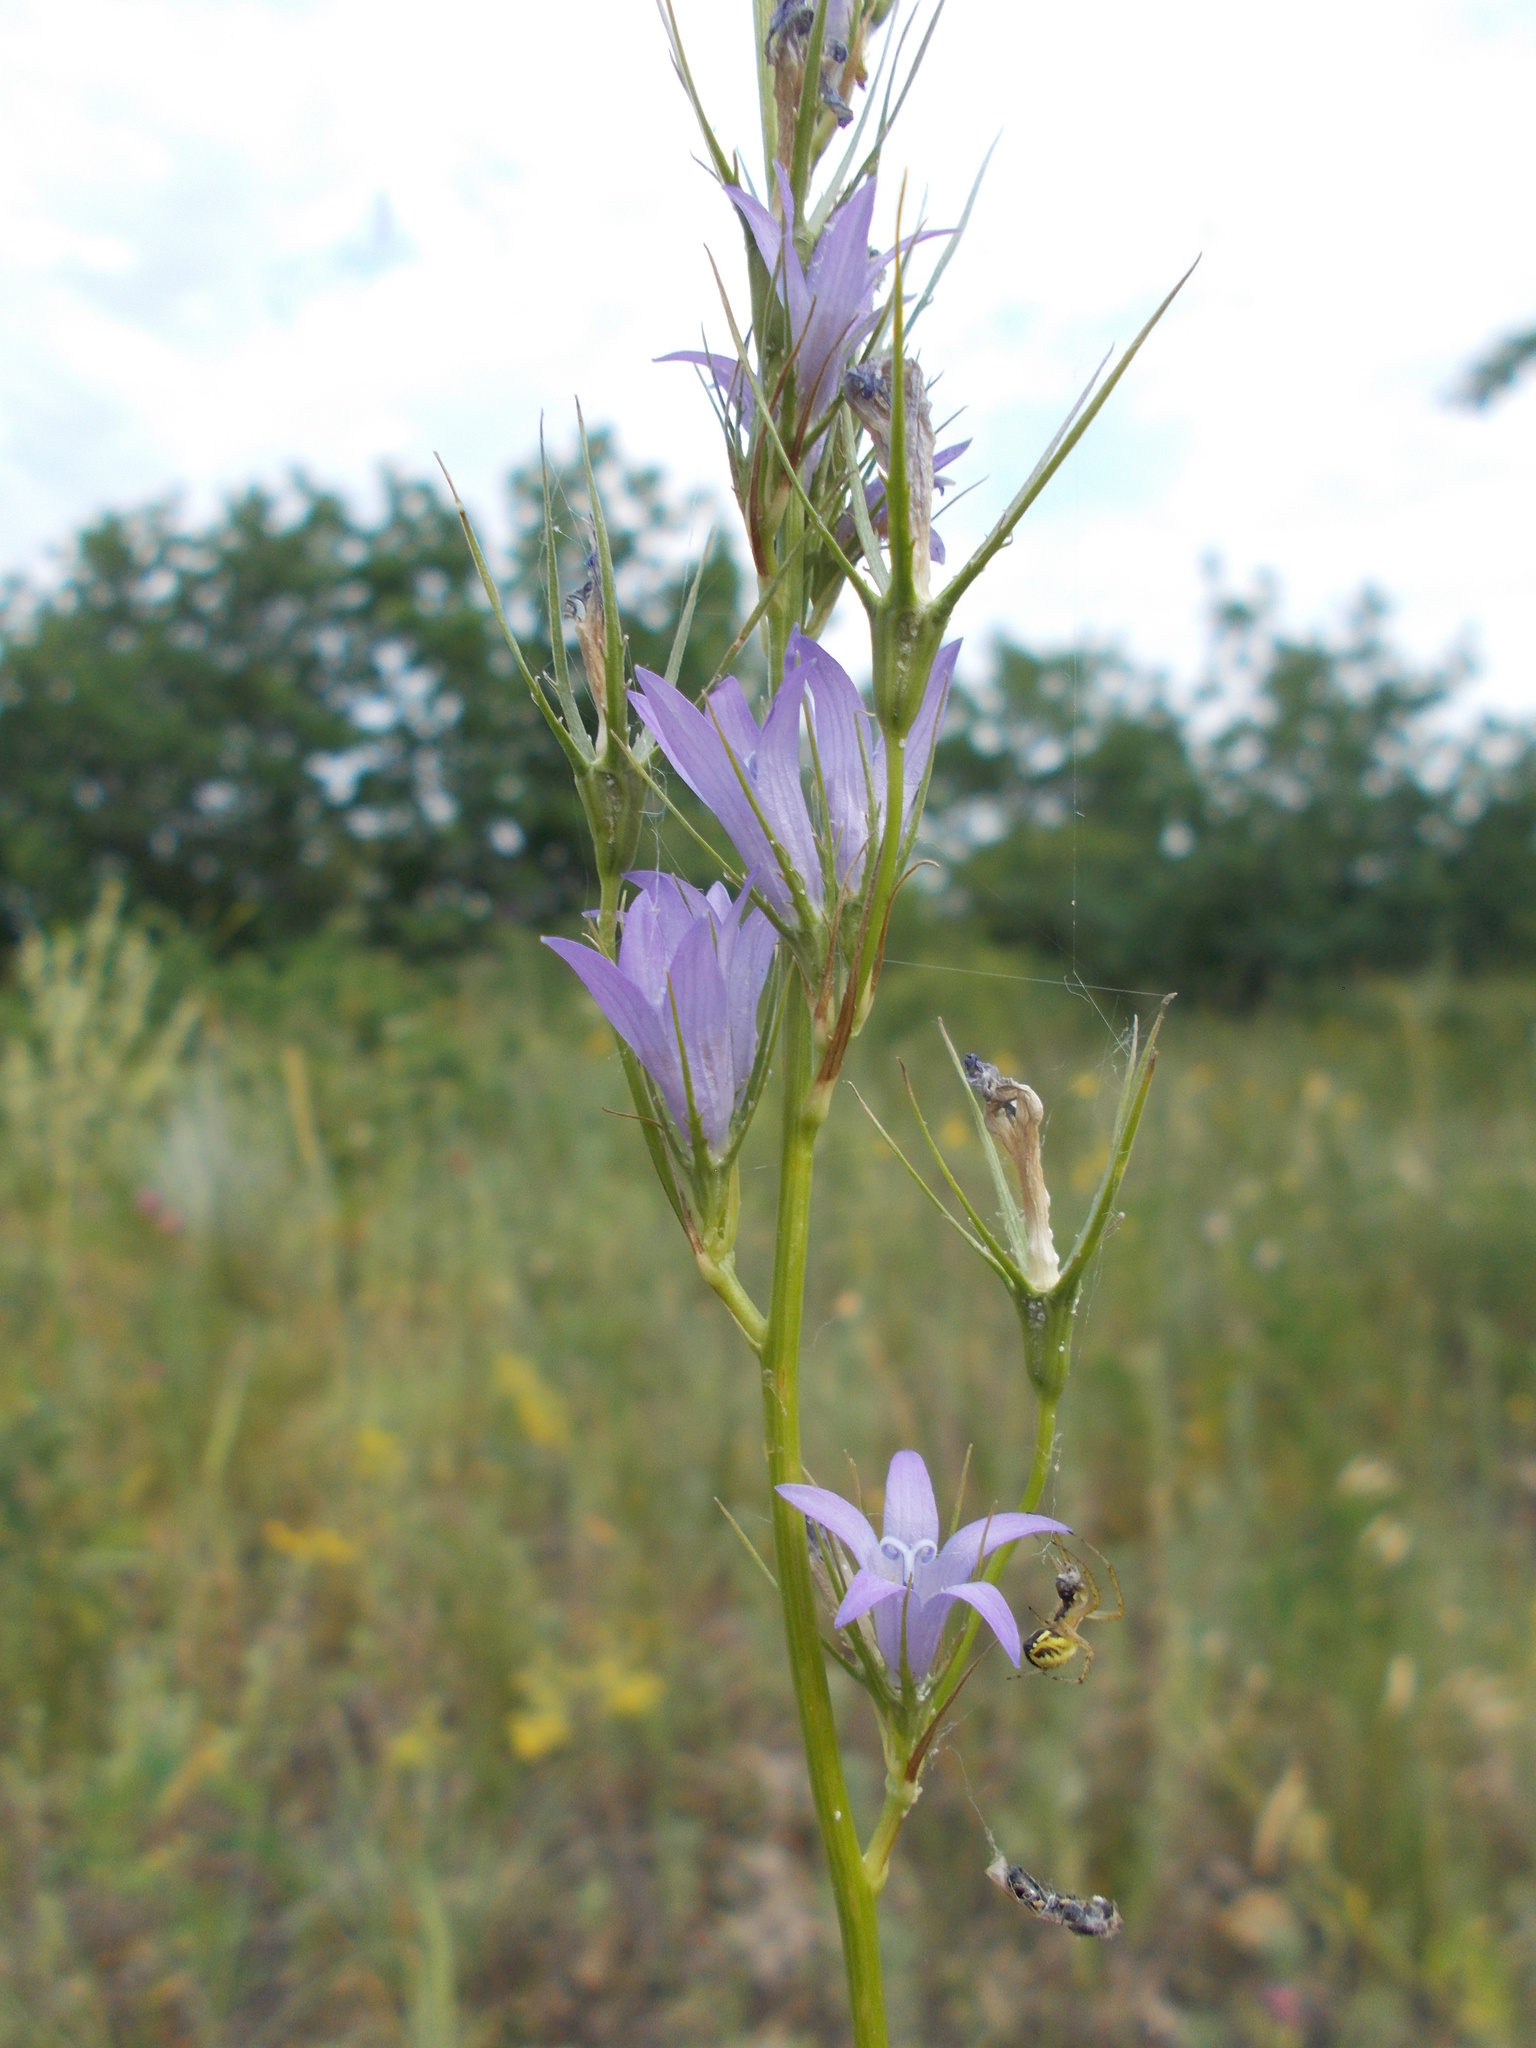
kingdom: Plantae
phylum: Tracheophyta
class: Magnoliopsida
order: Asterales
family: Campanulaceae
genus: Campanula
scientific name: Campanula rapunculus
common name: Rampion bellflower
